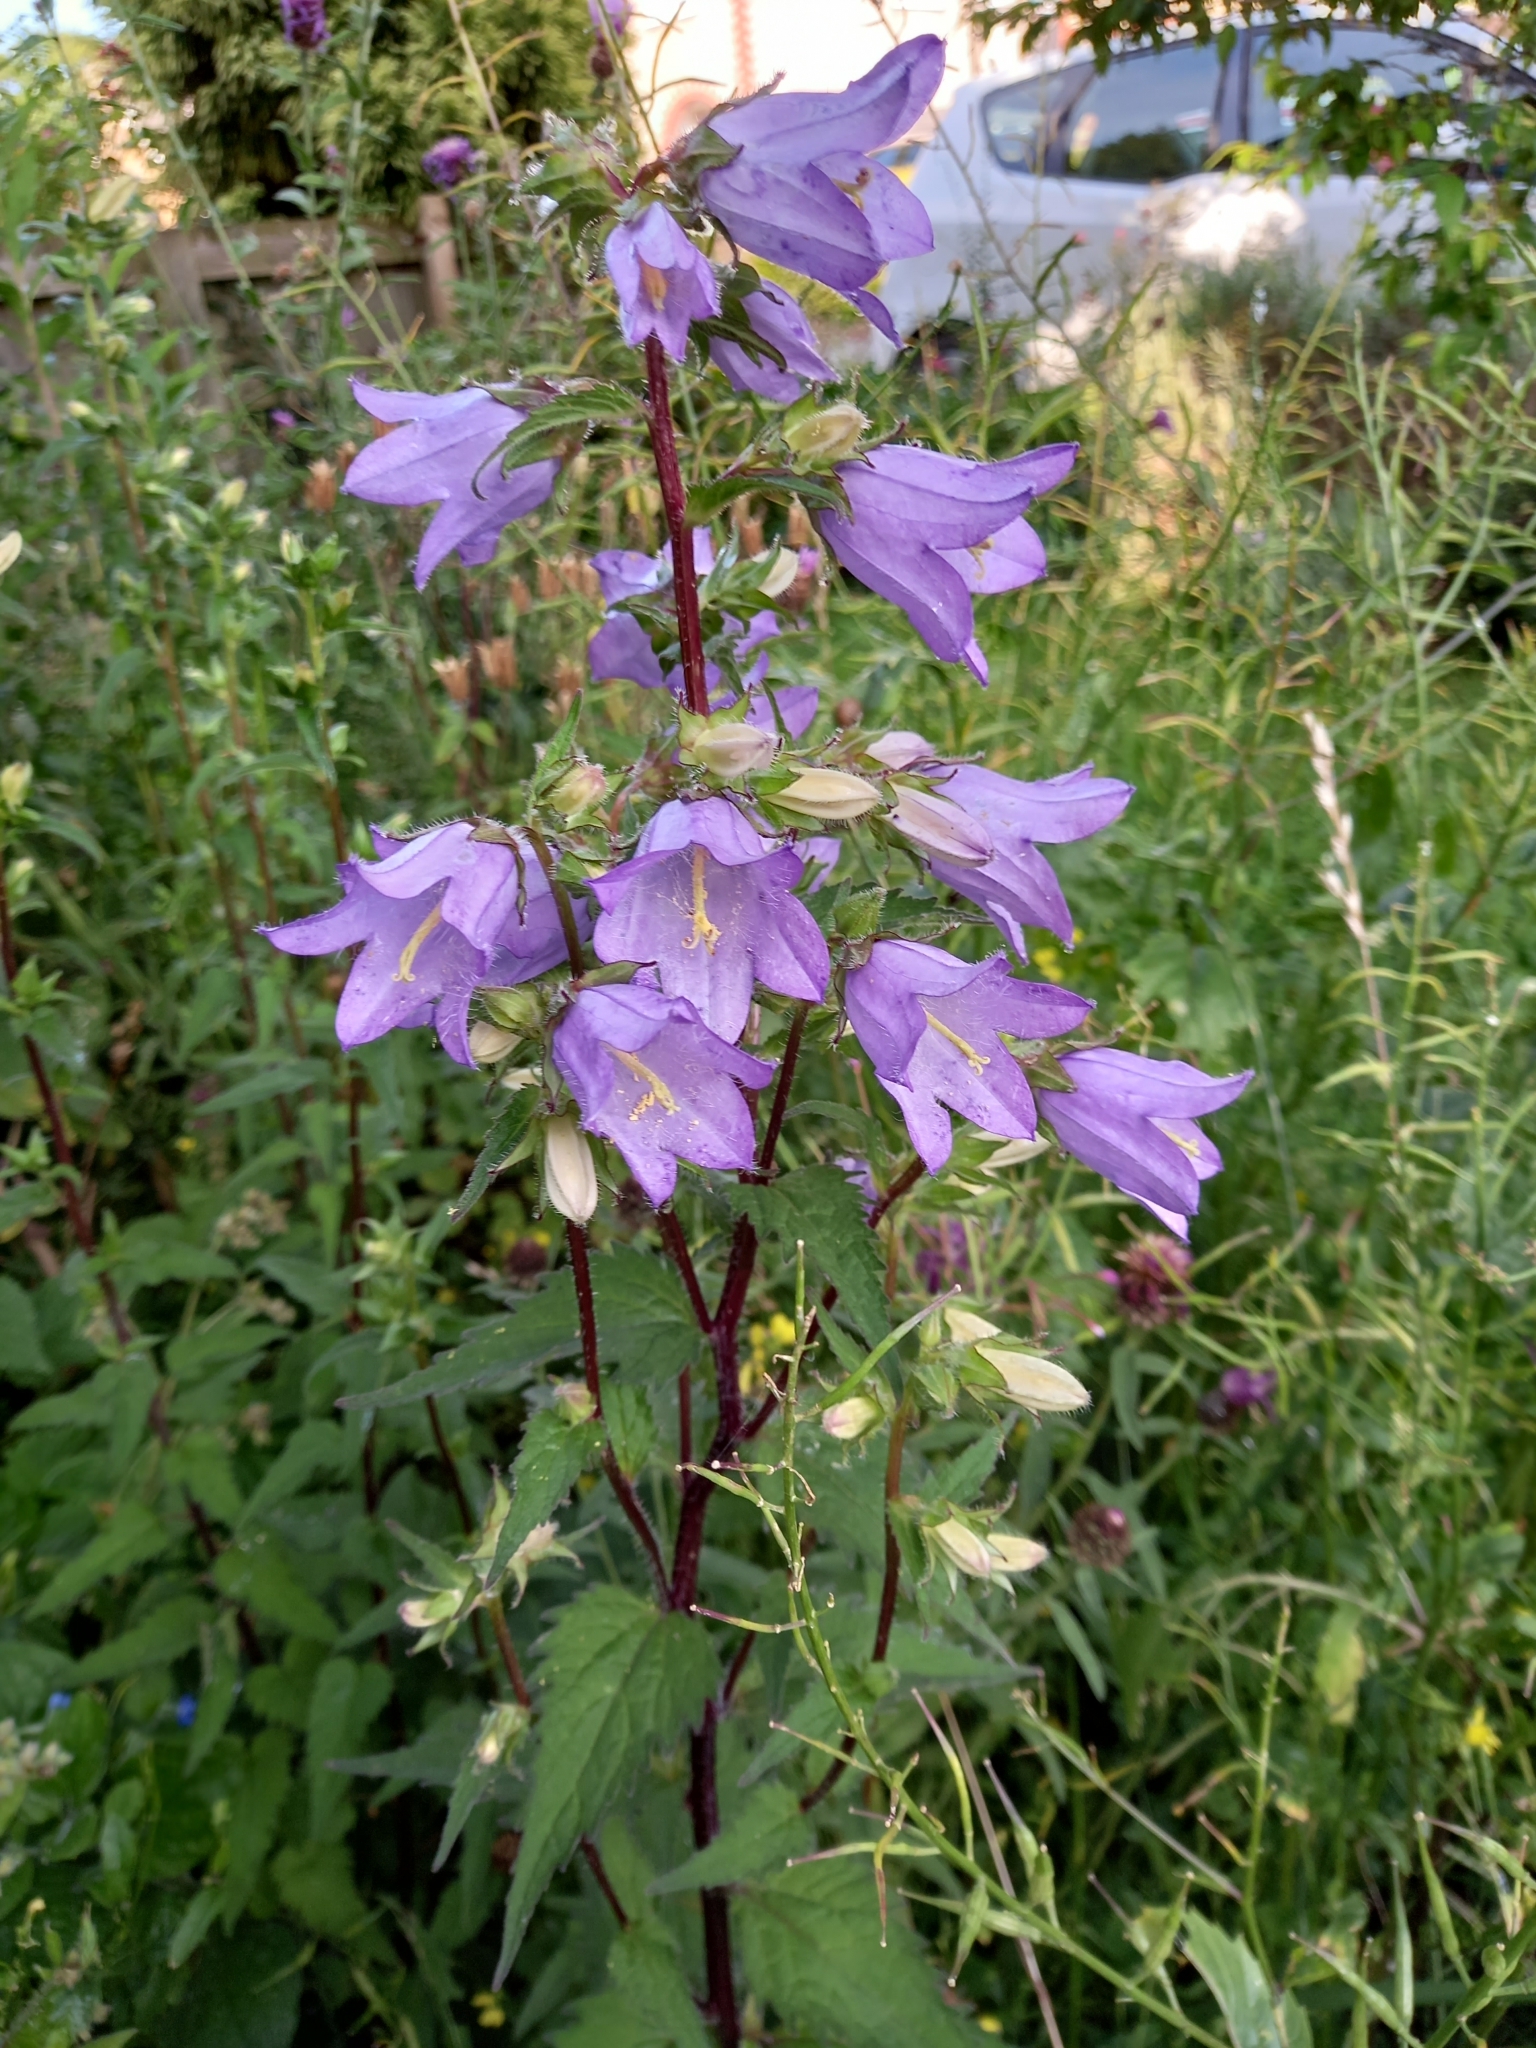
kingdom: Plantae
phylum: Tracheophyta
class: Magnoliopsida
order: Asterales
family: Campanulaceae
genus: Campanula
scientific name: Campanula trachelium
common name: Nettle-leaved bellflower
